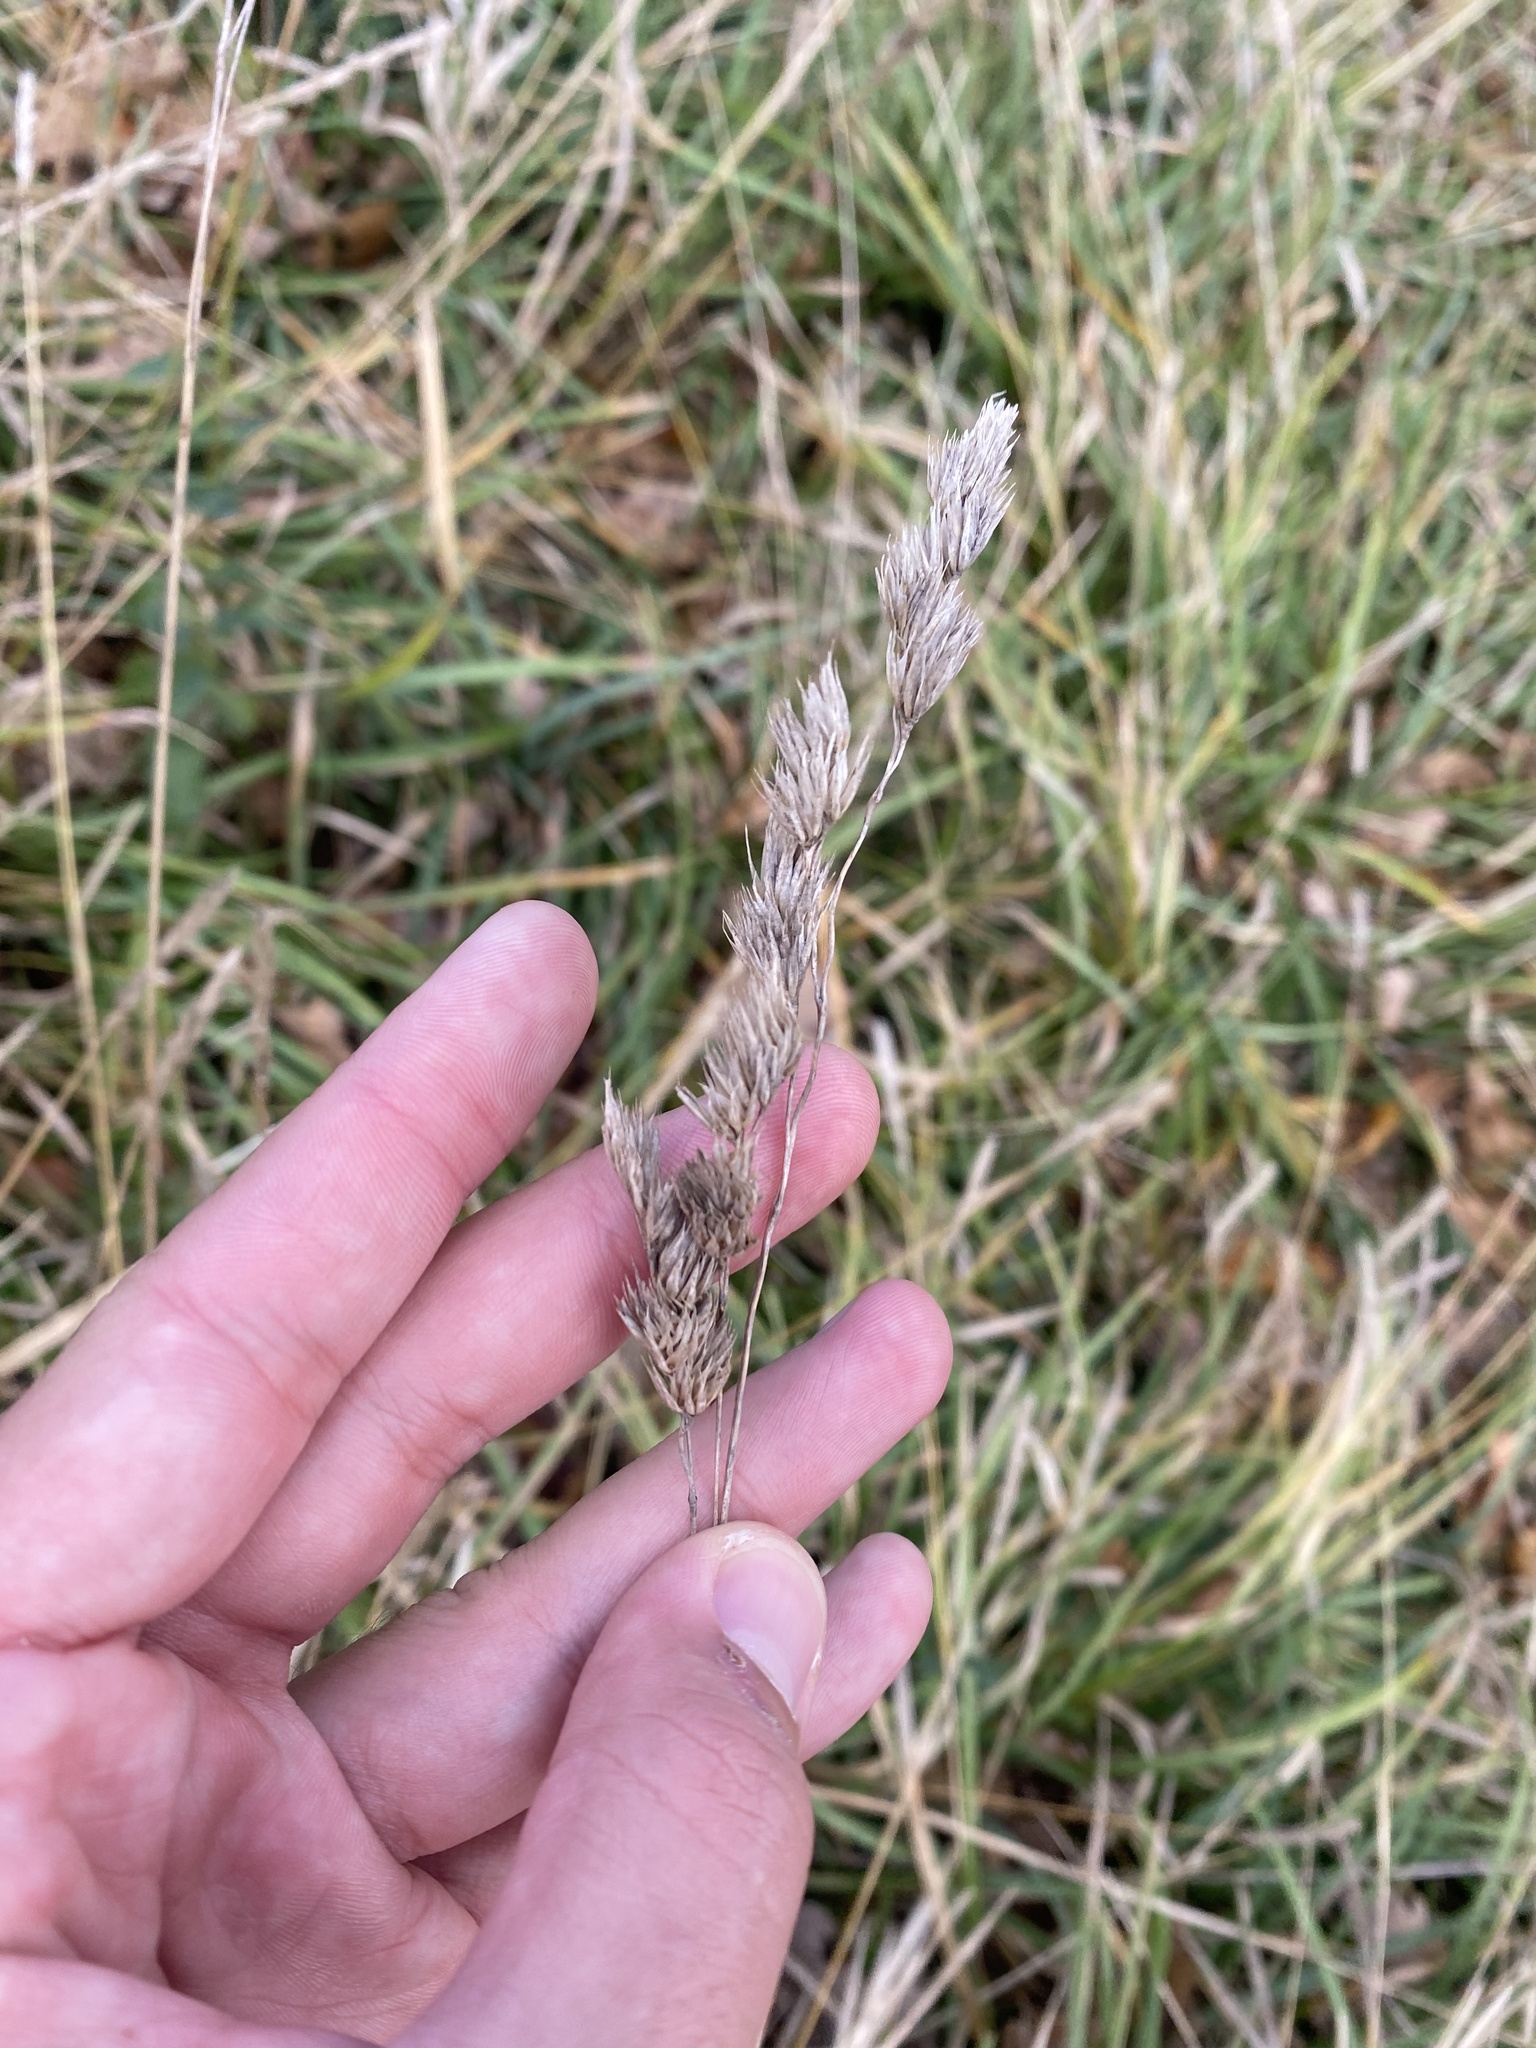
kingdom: Plantae
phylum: Tracheophyta
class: Liliopsida
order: Poales
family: Poaceae
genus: Dactylis
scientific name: Dactylis glomerata
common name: Orchardgrass
